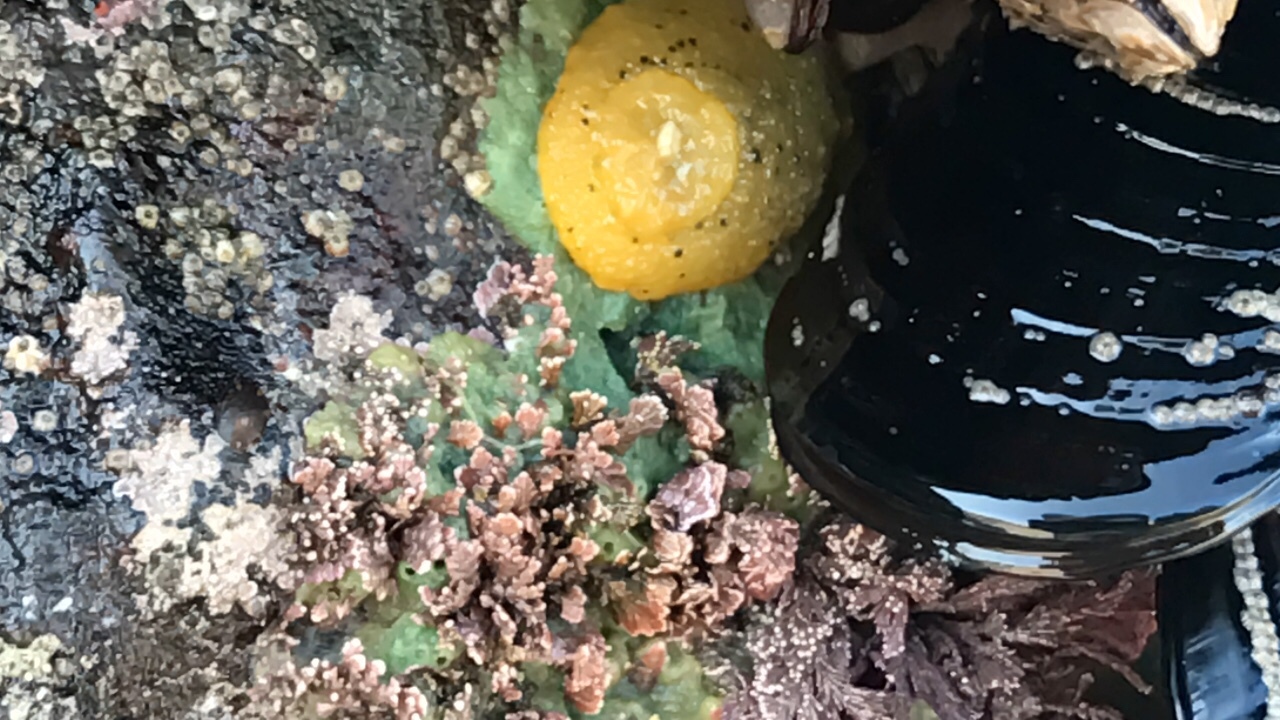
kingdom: Animalia
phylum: Mollusca
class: Gastropoda
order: Nudibranchia
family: Dorididae
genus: Doris
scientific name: Doris montereyensis
